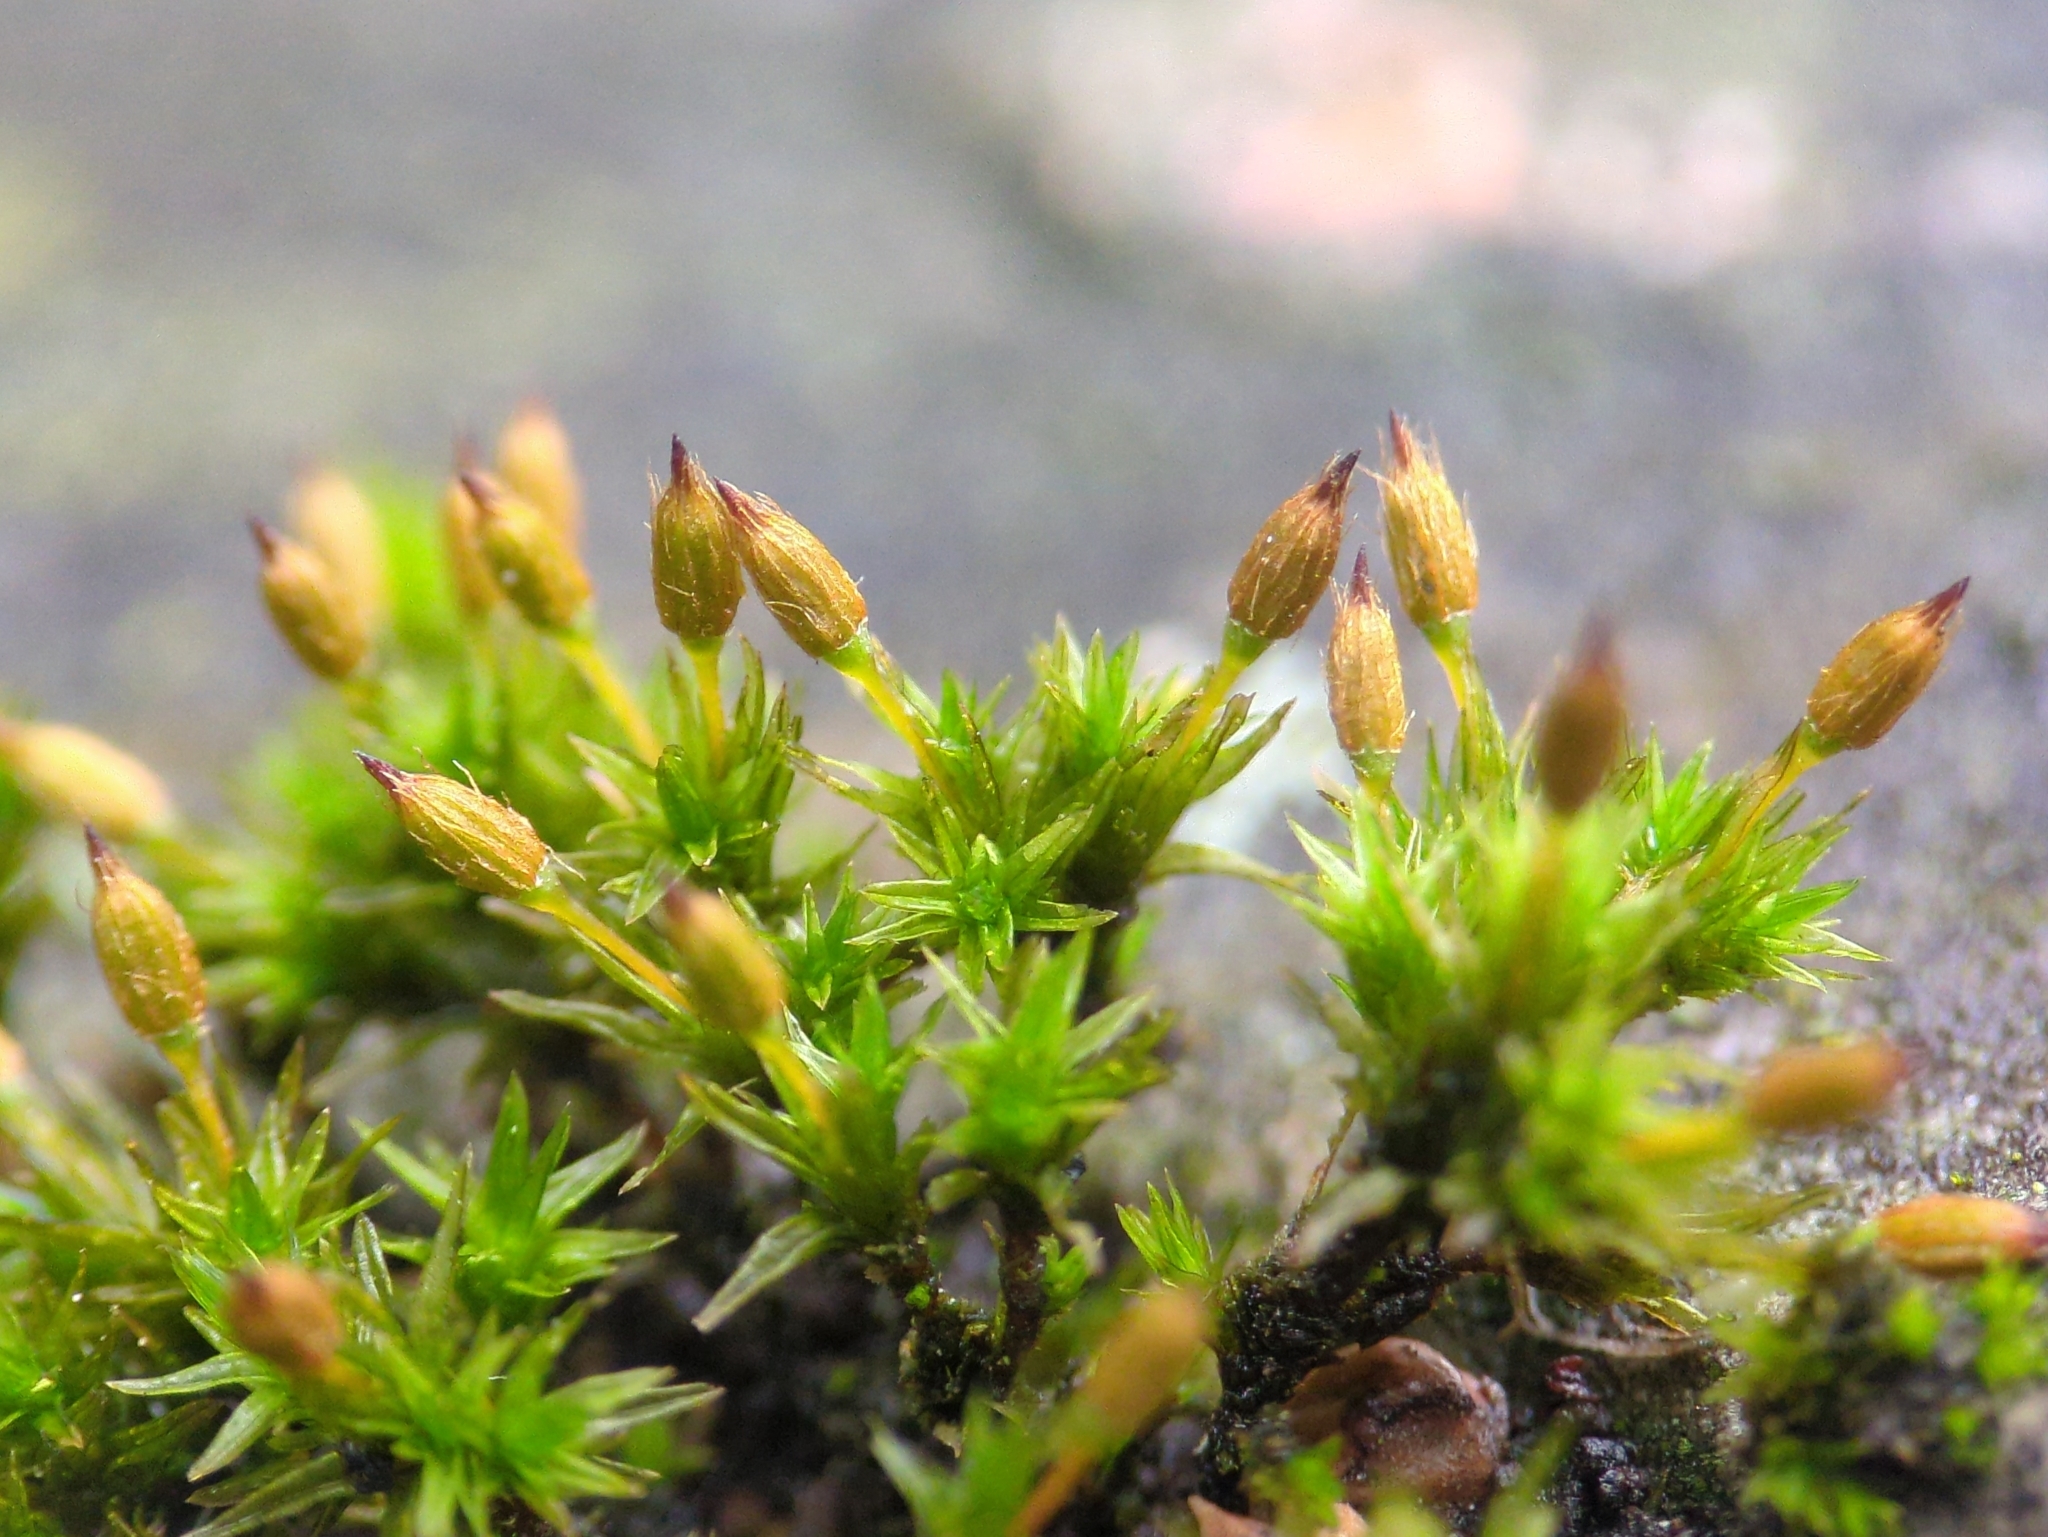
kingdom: Plantae
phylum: Bryophyta
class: Bryopsida
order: Orthotrichales
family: Orthotrichaceae
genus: Orthotrichum
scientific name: Orthotrichum anomalum
